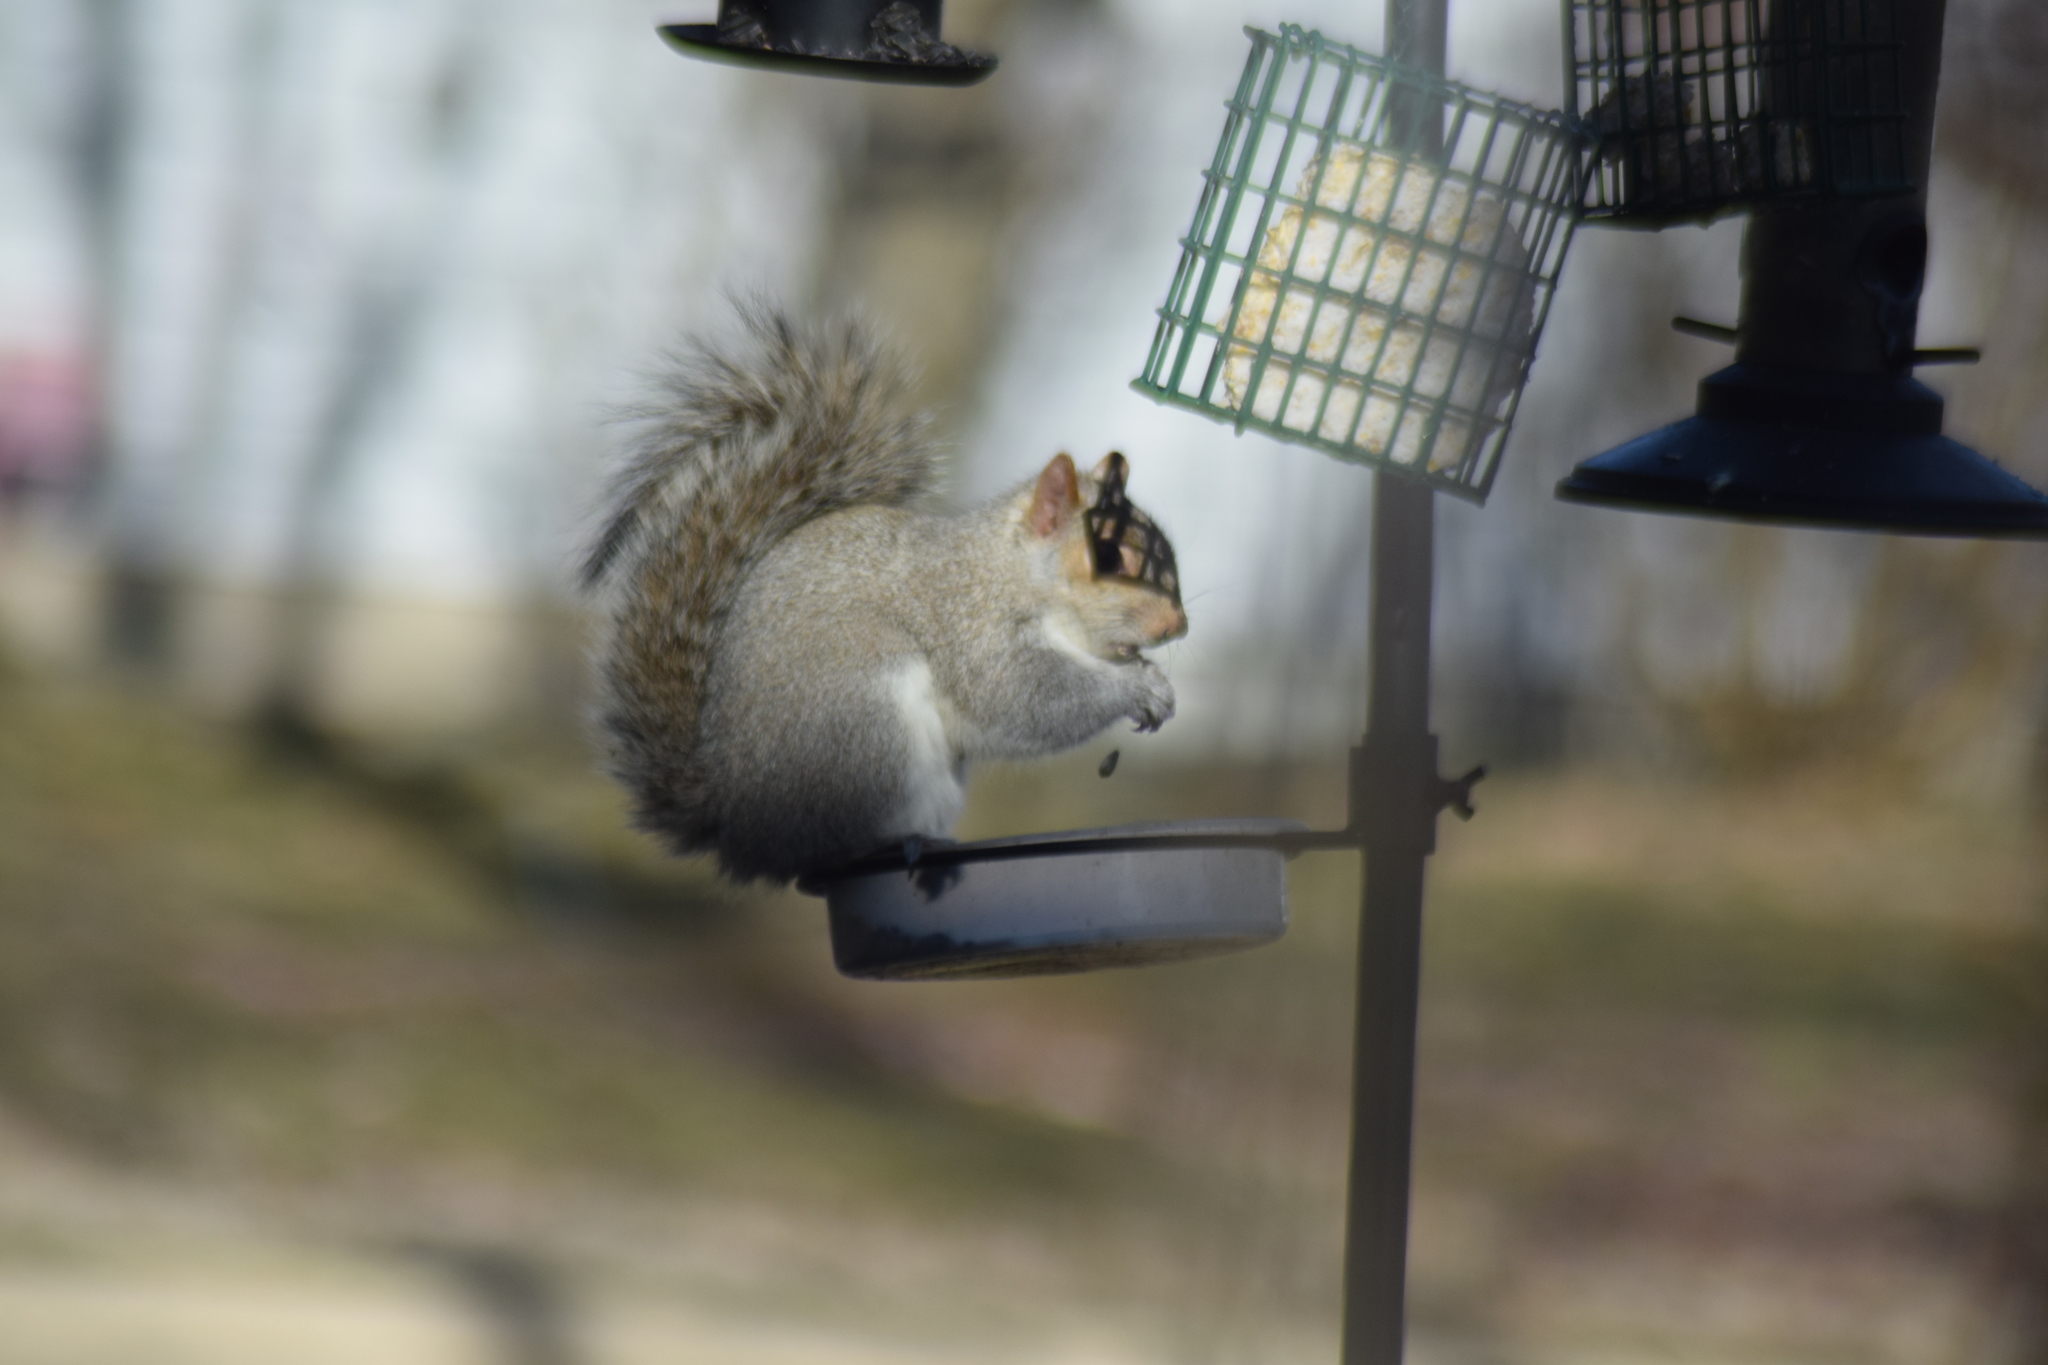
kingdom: Animalia
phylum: Chordata
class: Mammalia
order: Rodentia
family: Sciuridae
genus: Sciurus
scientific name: Sciurus carolinensis
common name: Eastern gray squirrel
